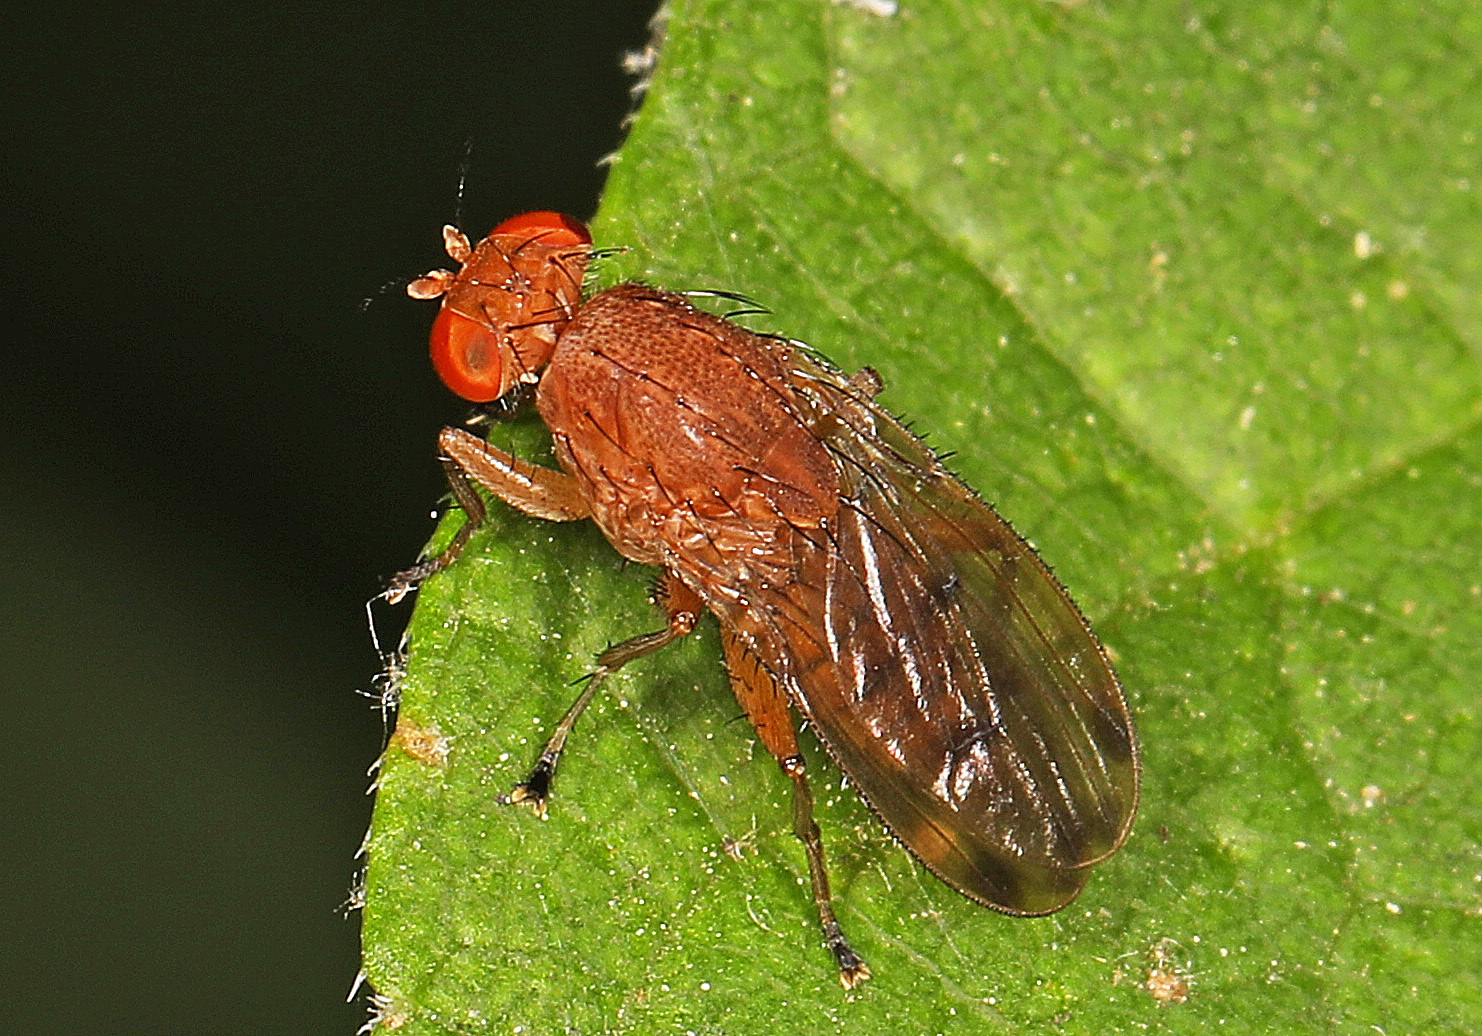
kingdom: Animalia
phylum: Arthropoda
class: Insecta
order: Diptera
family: Heleomyzidae
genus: Suillia
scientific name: Suillia quinquepunctata
